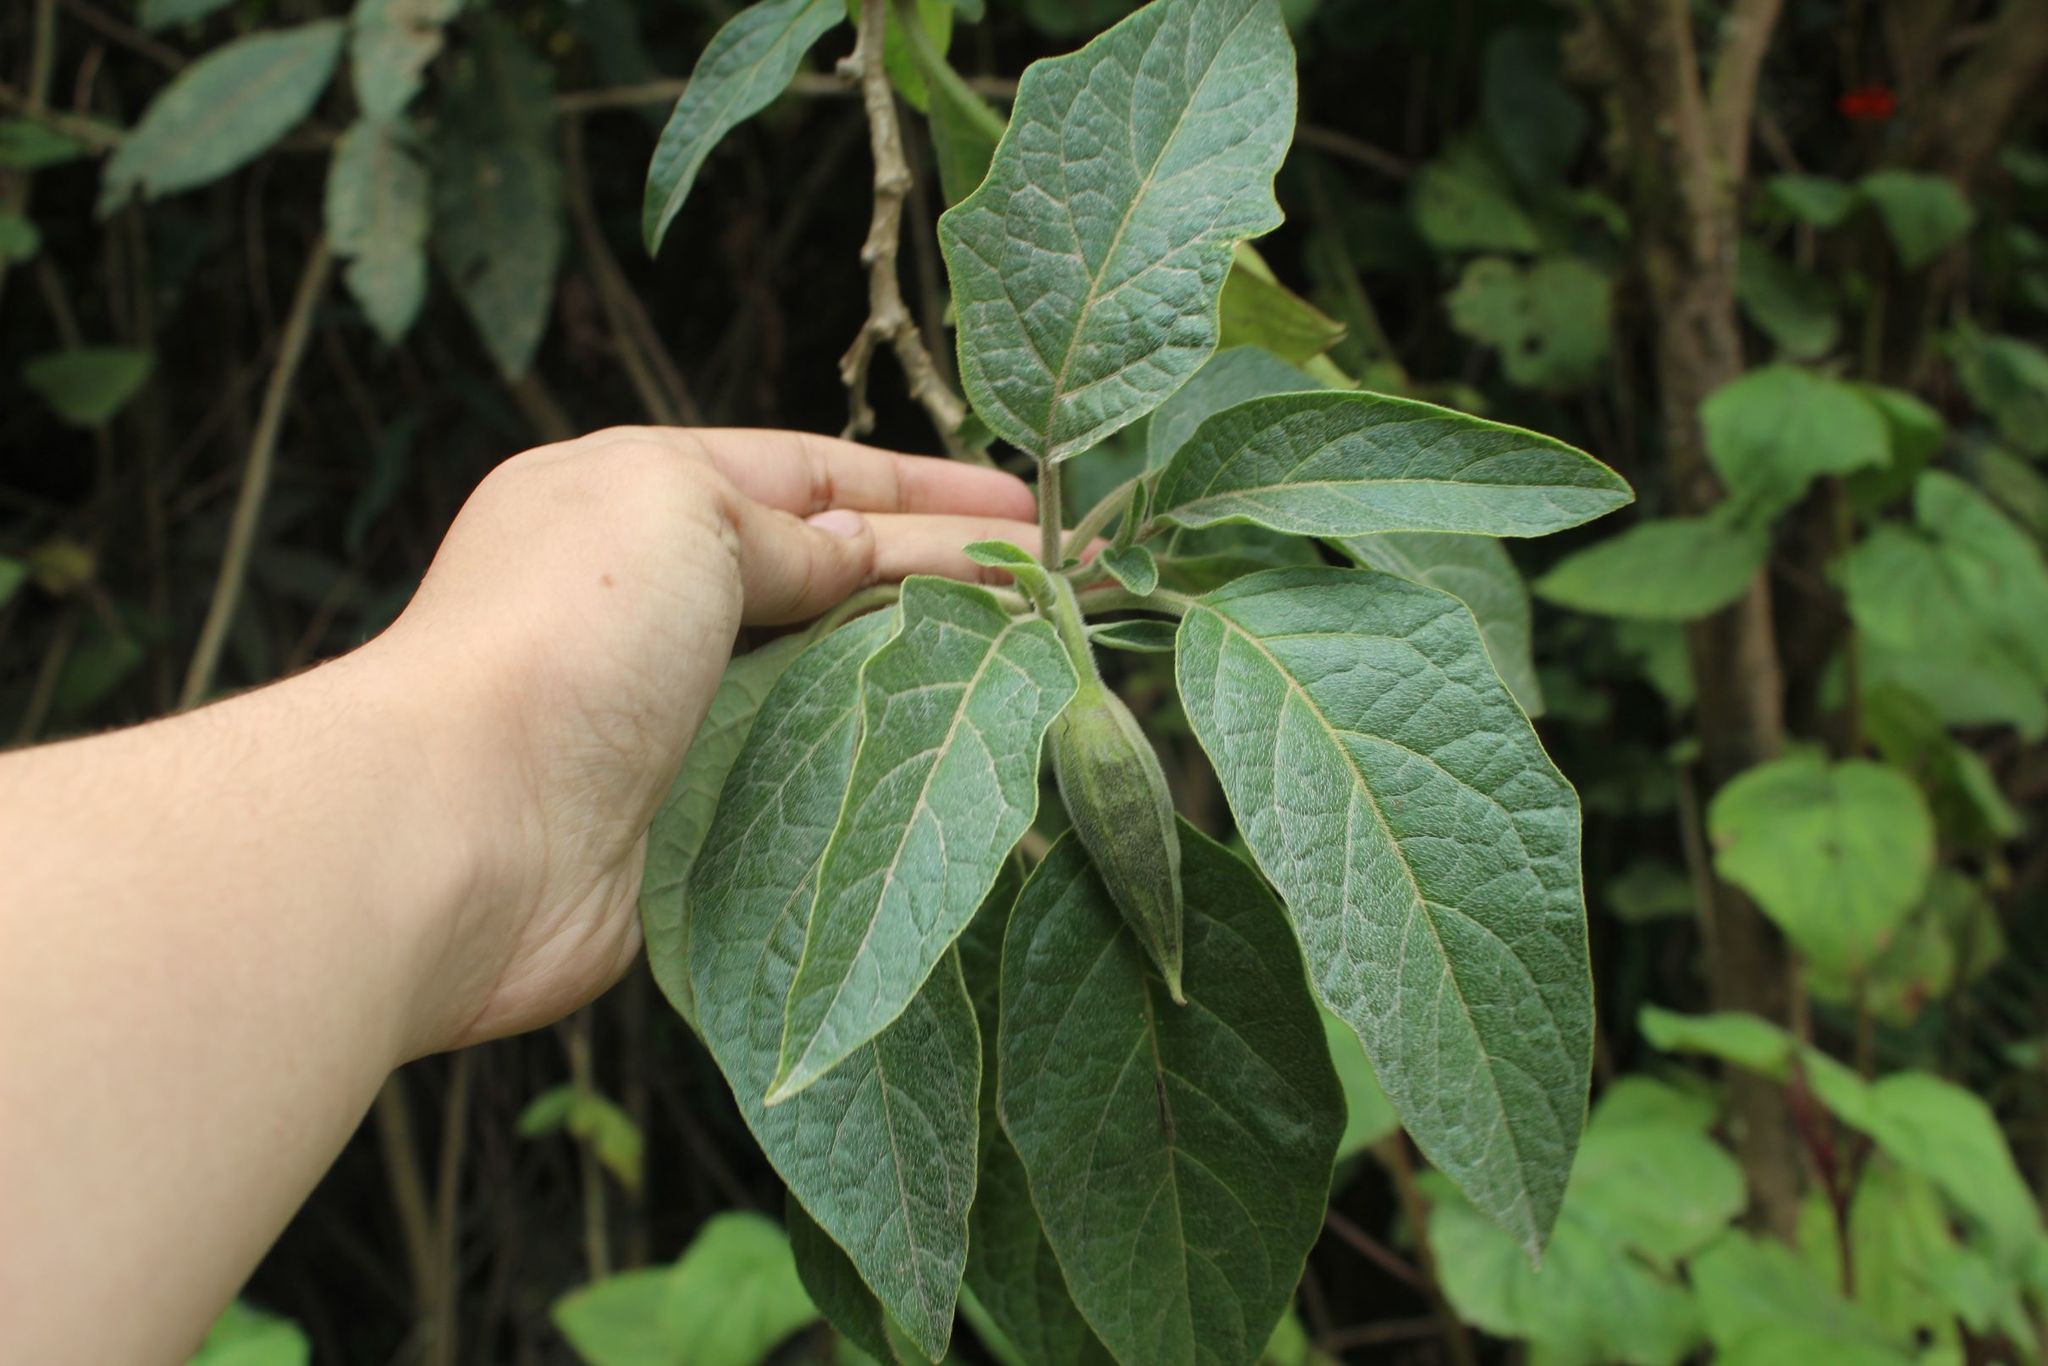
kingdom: Plantae
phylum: Tracheophyta
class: Magnoliopsida
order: Solanales
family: Solanaceae
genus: Brugmansia
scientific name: Brugmansia sanguinea
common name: Red floripontio
